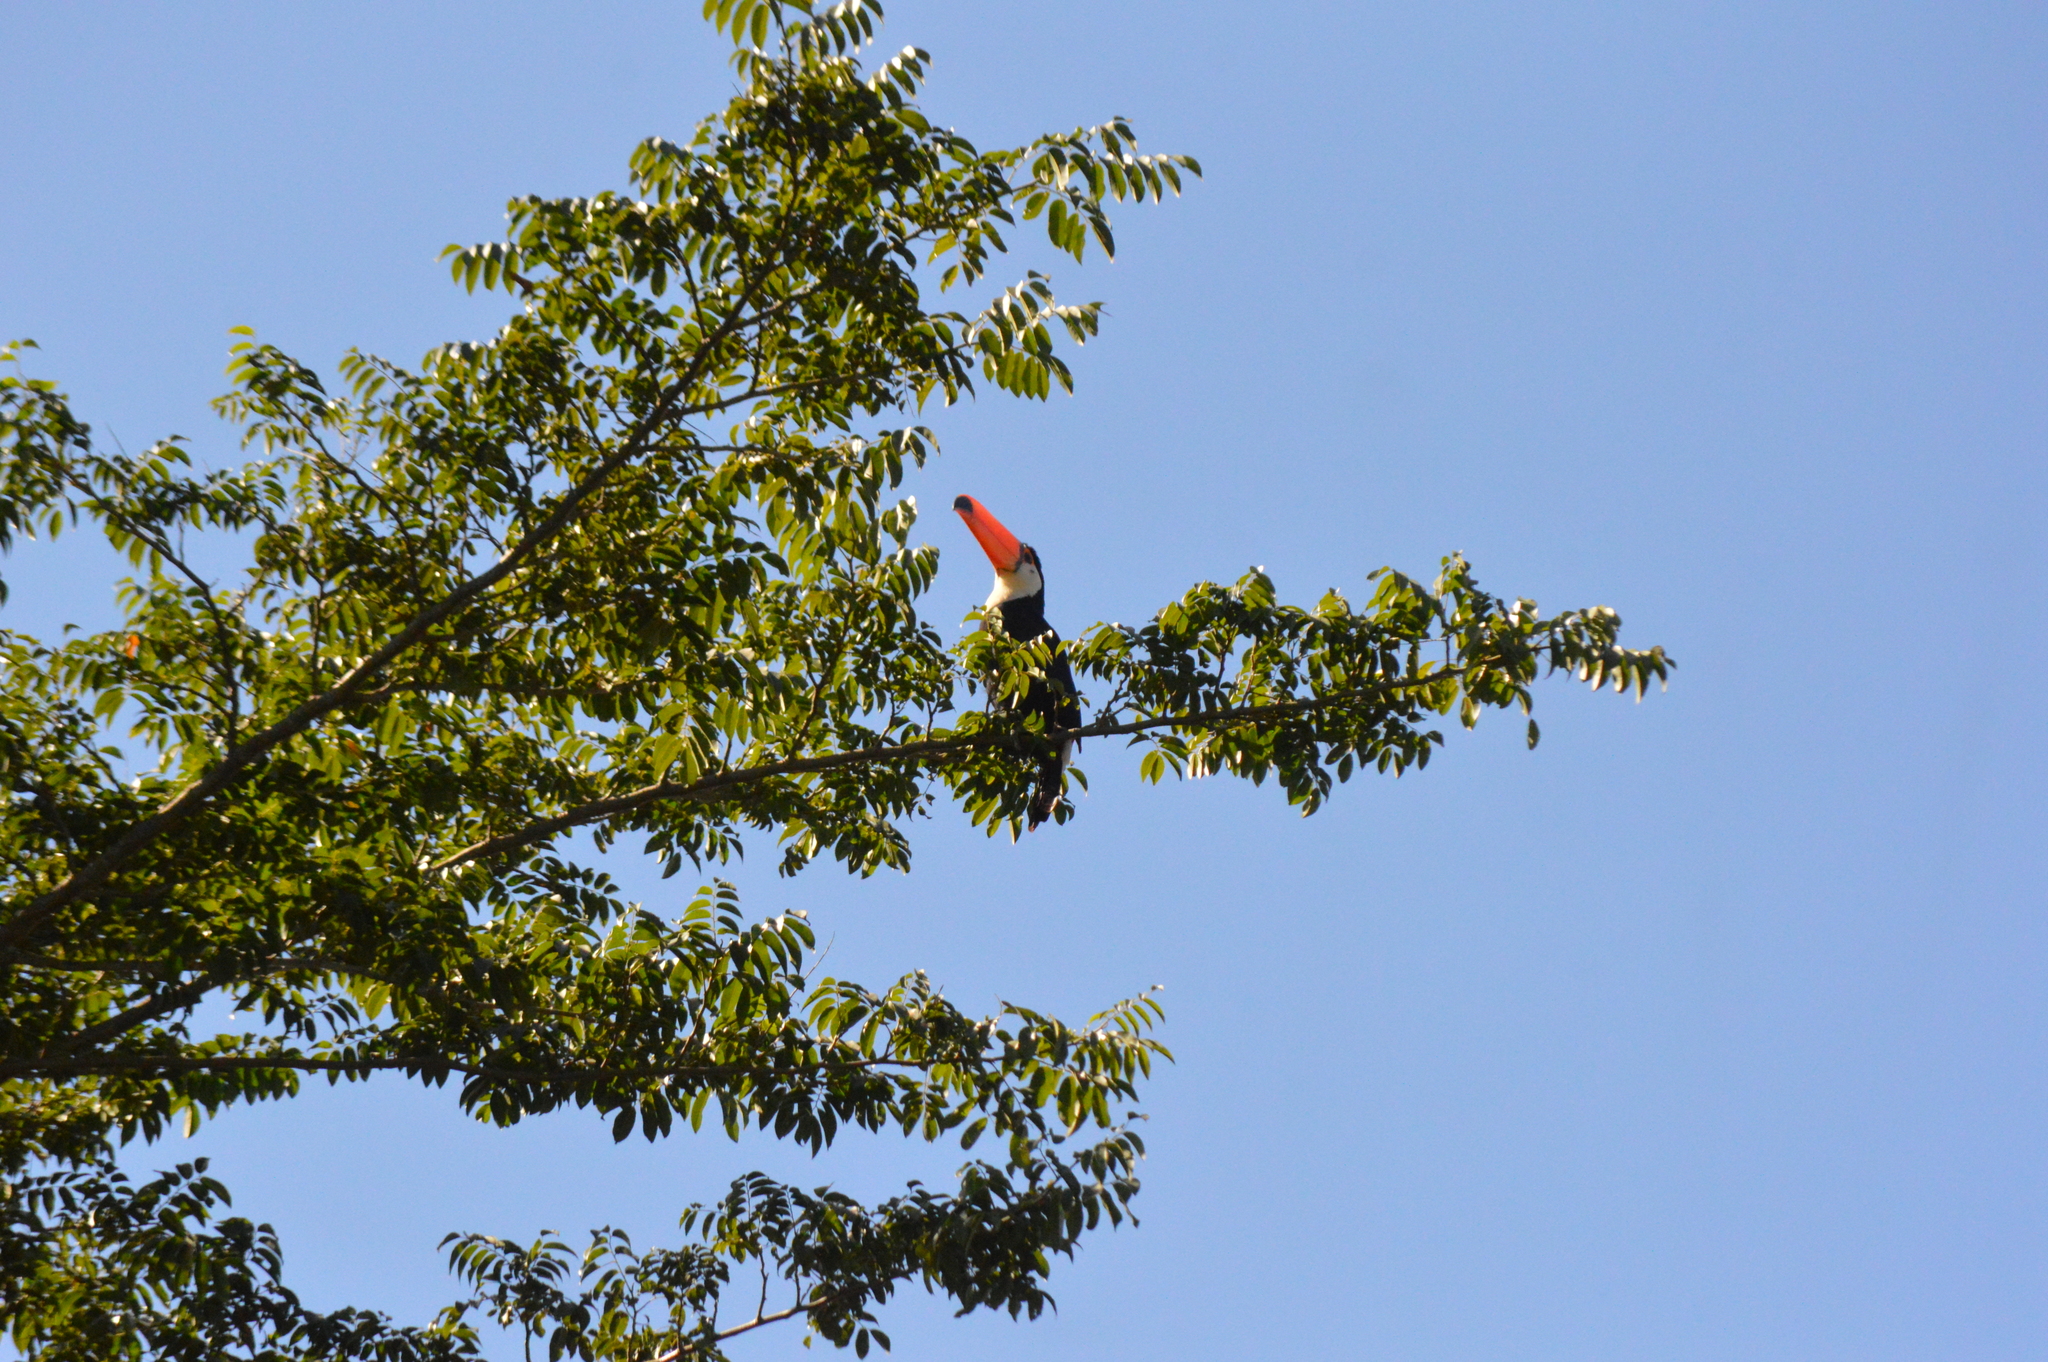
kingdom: Animalia
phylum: Chordata
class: Aves
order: Piciformes
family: Ramphastidae
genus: Ramphastos
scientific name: Ramphastos toco
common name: Toco toucan
